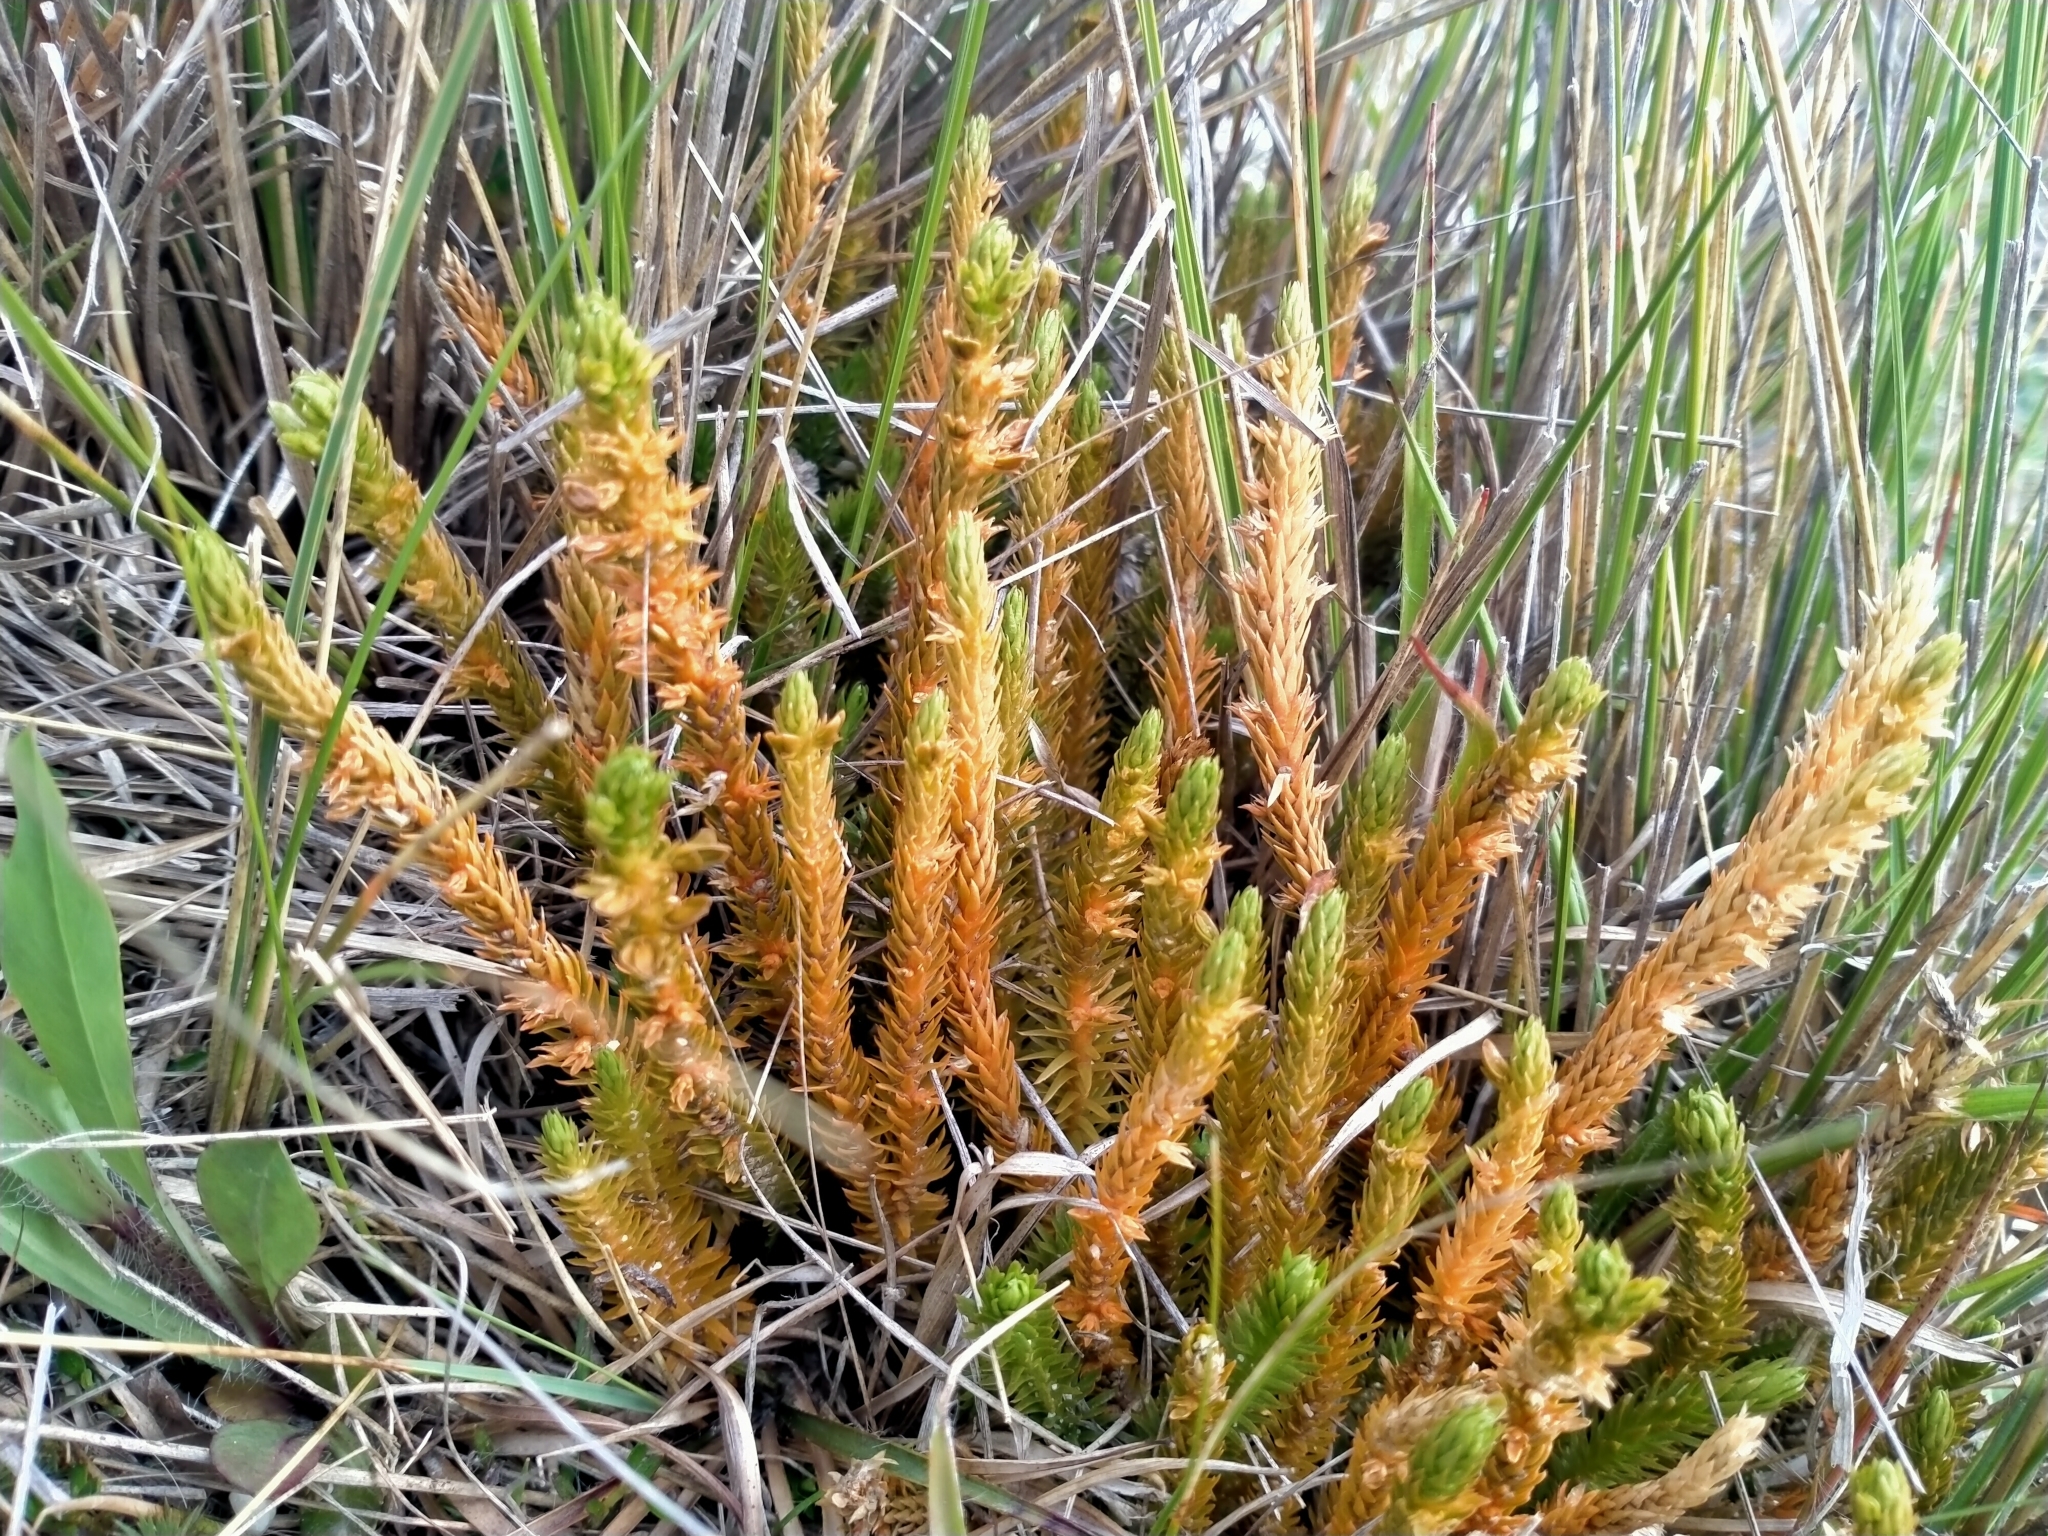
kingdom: Plantae
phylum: Tracheophyta
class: Lycopodiopsida
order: Lycopodiales
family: Lycopodiaceae
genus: Huperzia
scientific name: Huperzia australiana
